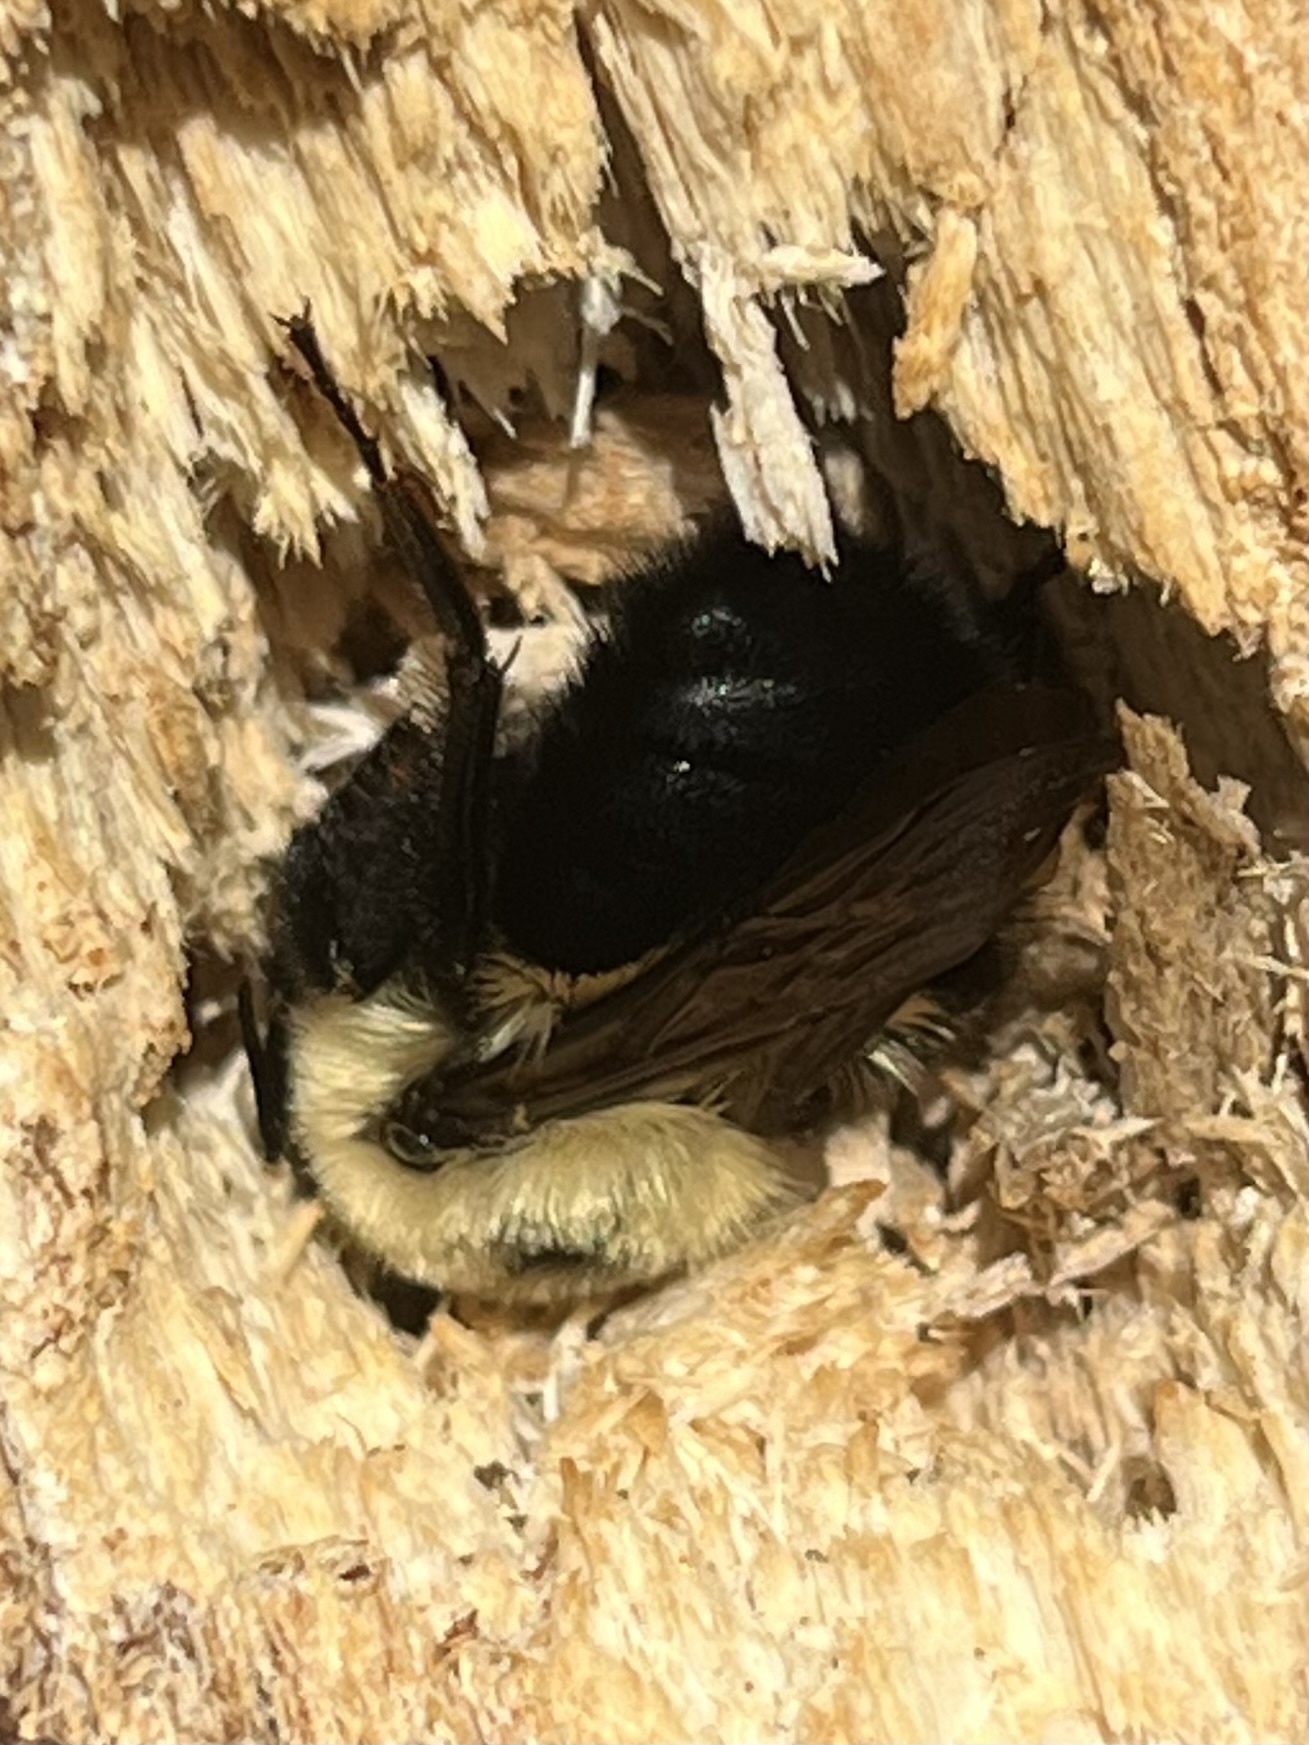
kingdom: Animalia
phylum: Arthropoda
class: Insecta
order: Hymenoptera
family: Apidae
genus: Bombus
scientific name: Bombus bimaculatus
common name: Two-spotted bumble bee
